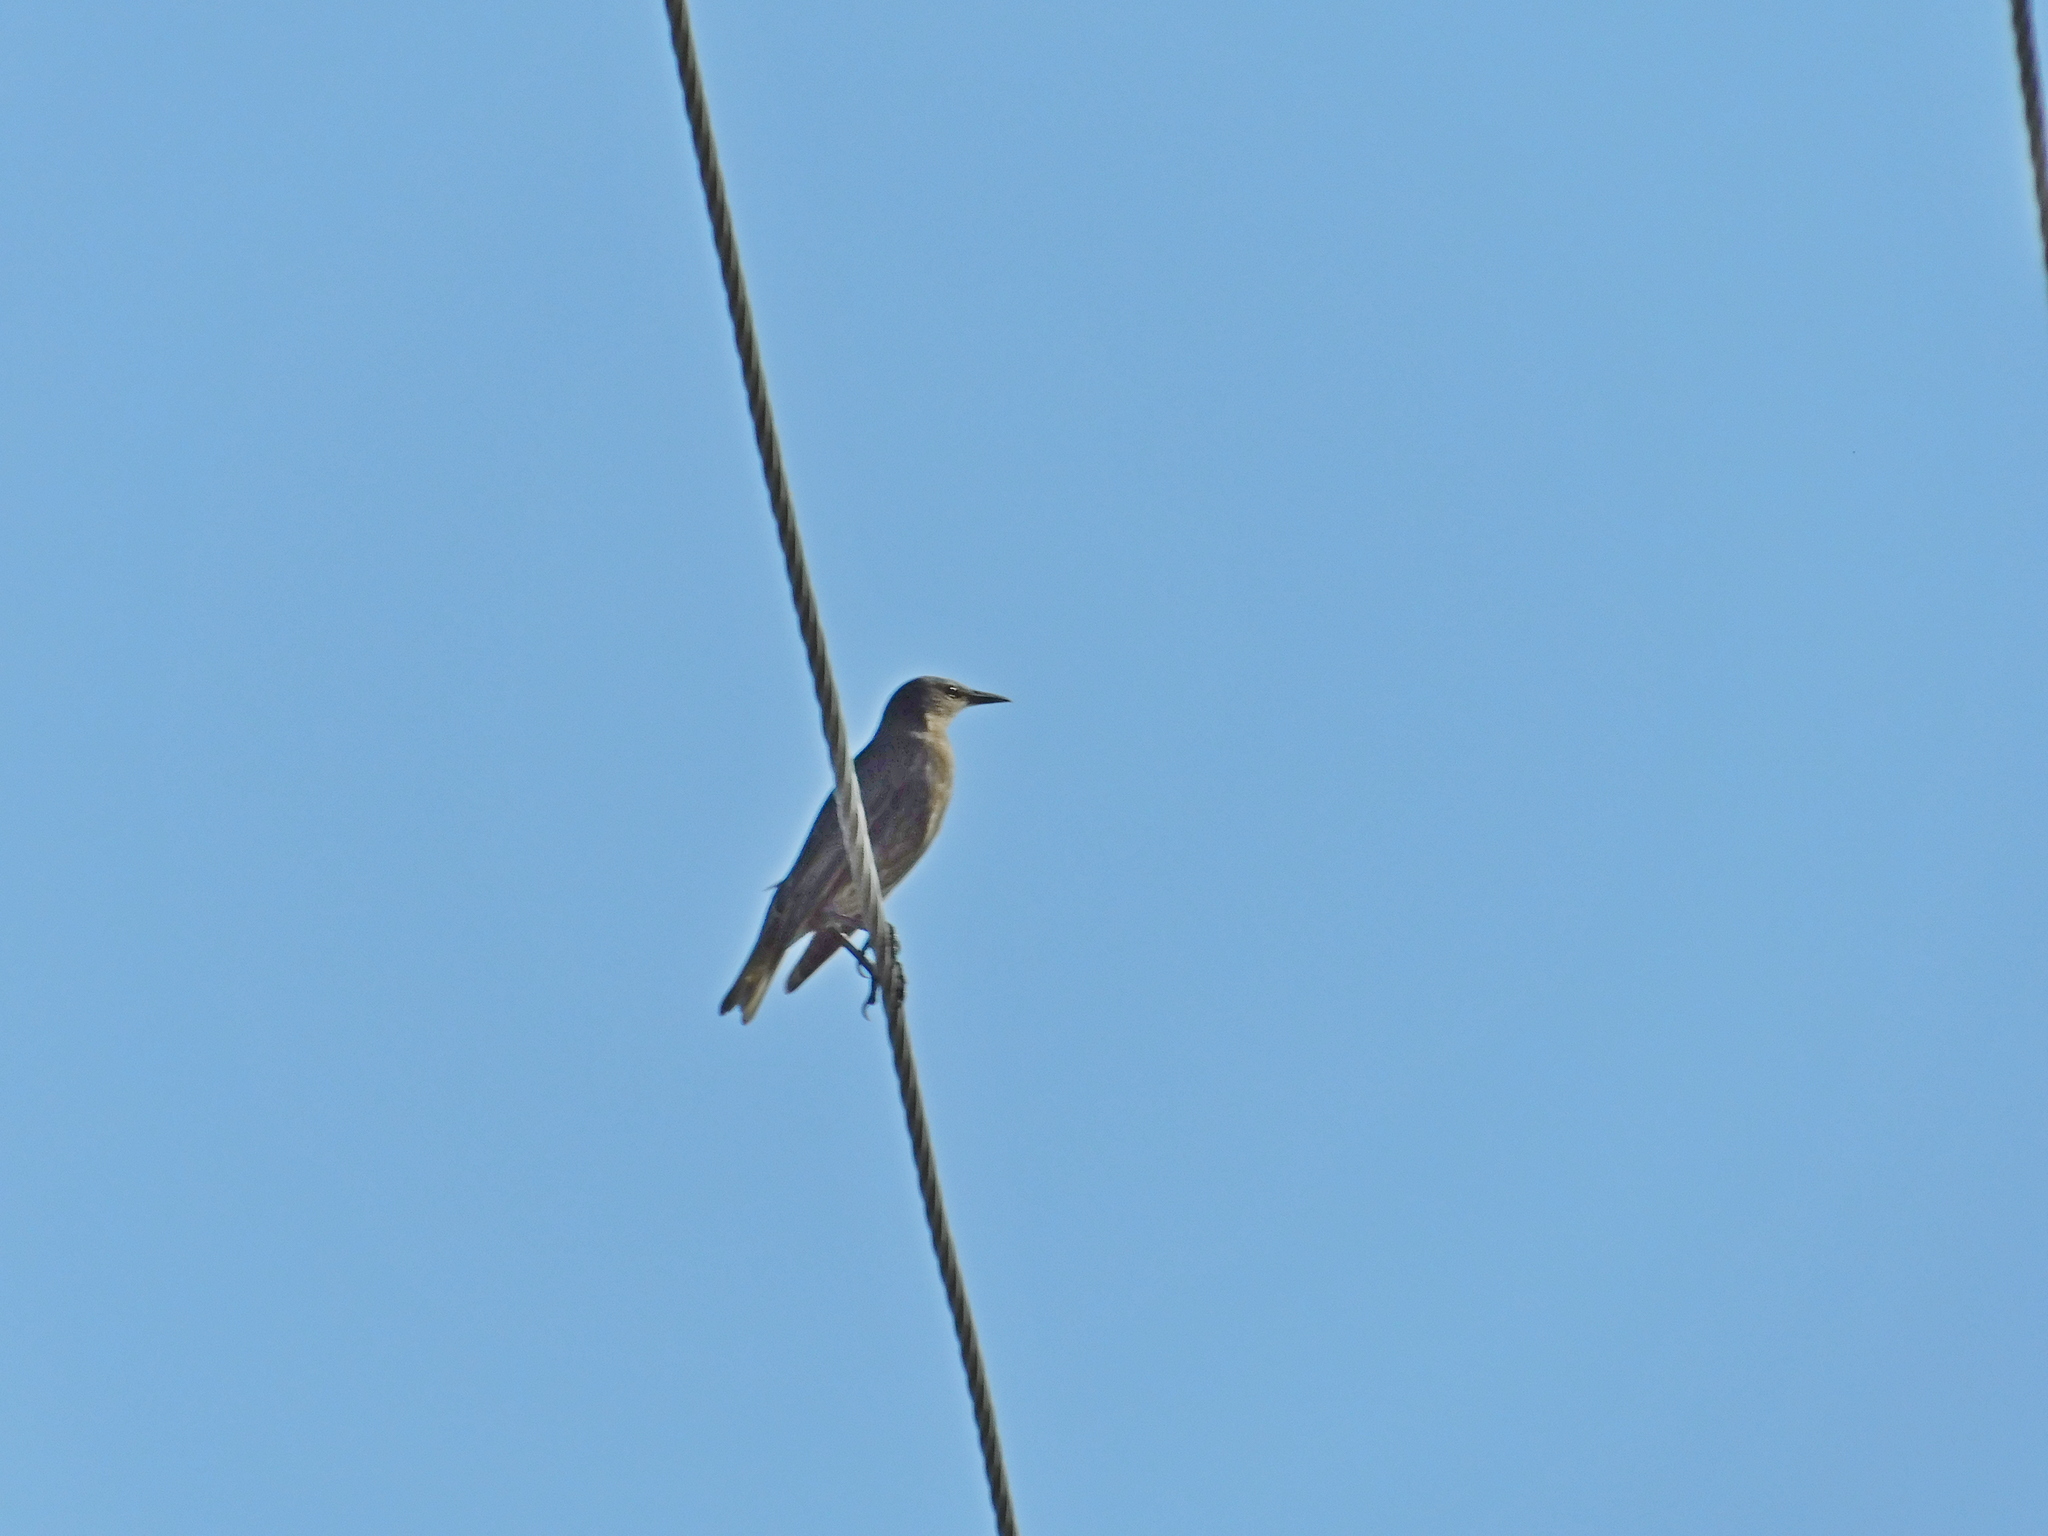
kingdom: Animalia
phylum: Chordata
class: Aves
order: Passeriformes
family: Sturnidae
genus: Sturnus
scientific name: Sturnus vulgaris
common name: Common starling
